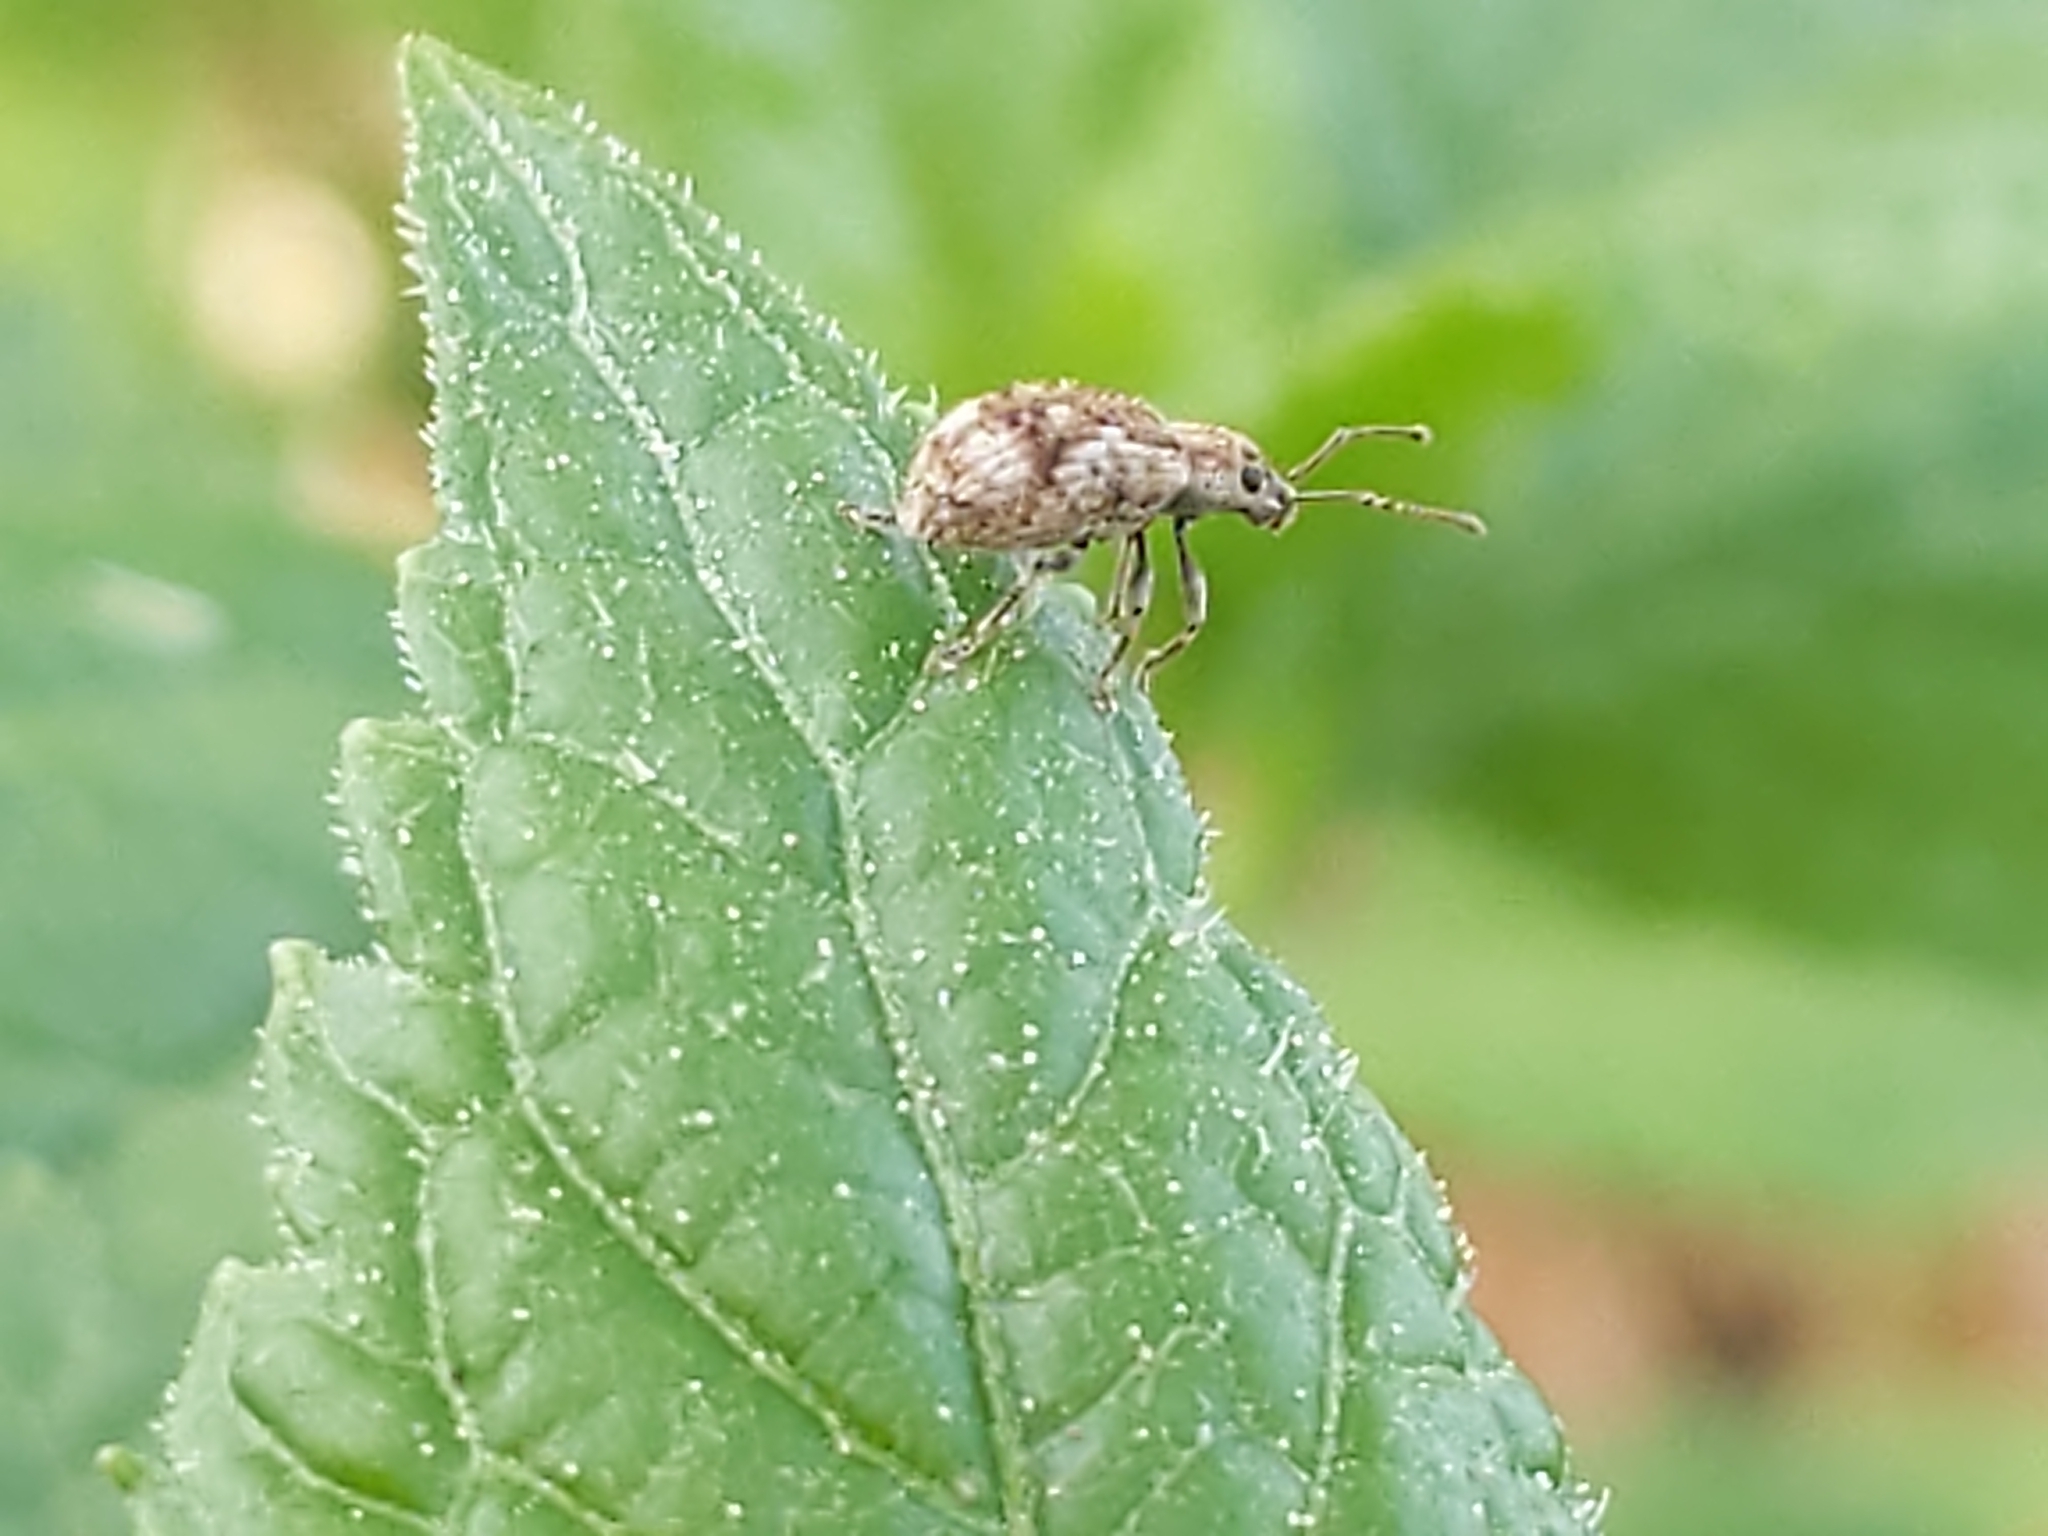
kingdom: Animalia
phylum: Arthropoda
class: Insecta
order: Coleoptera
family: Curculionidae
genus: Pseudoedophrys
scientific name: Pseudoedophrys hilleri
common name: Weevil
